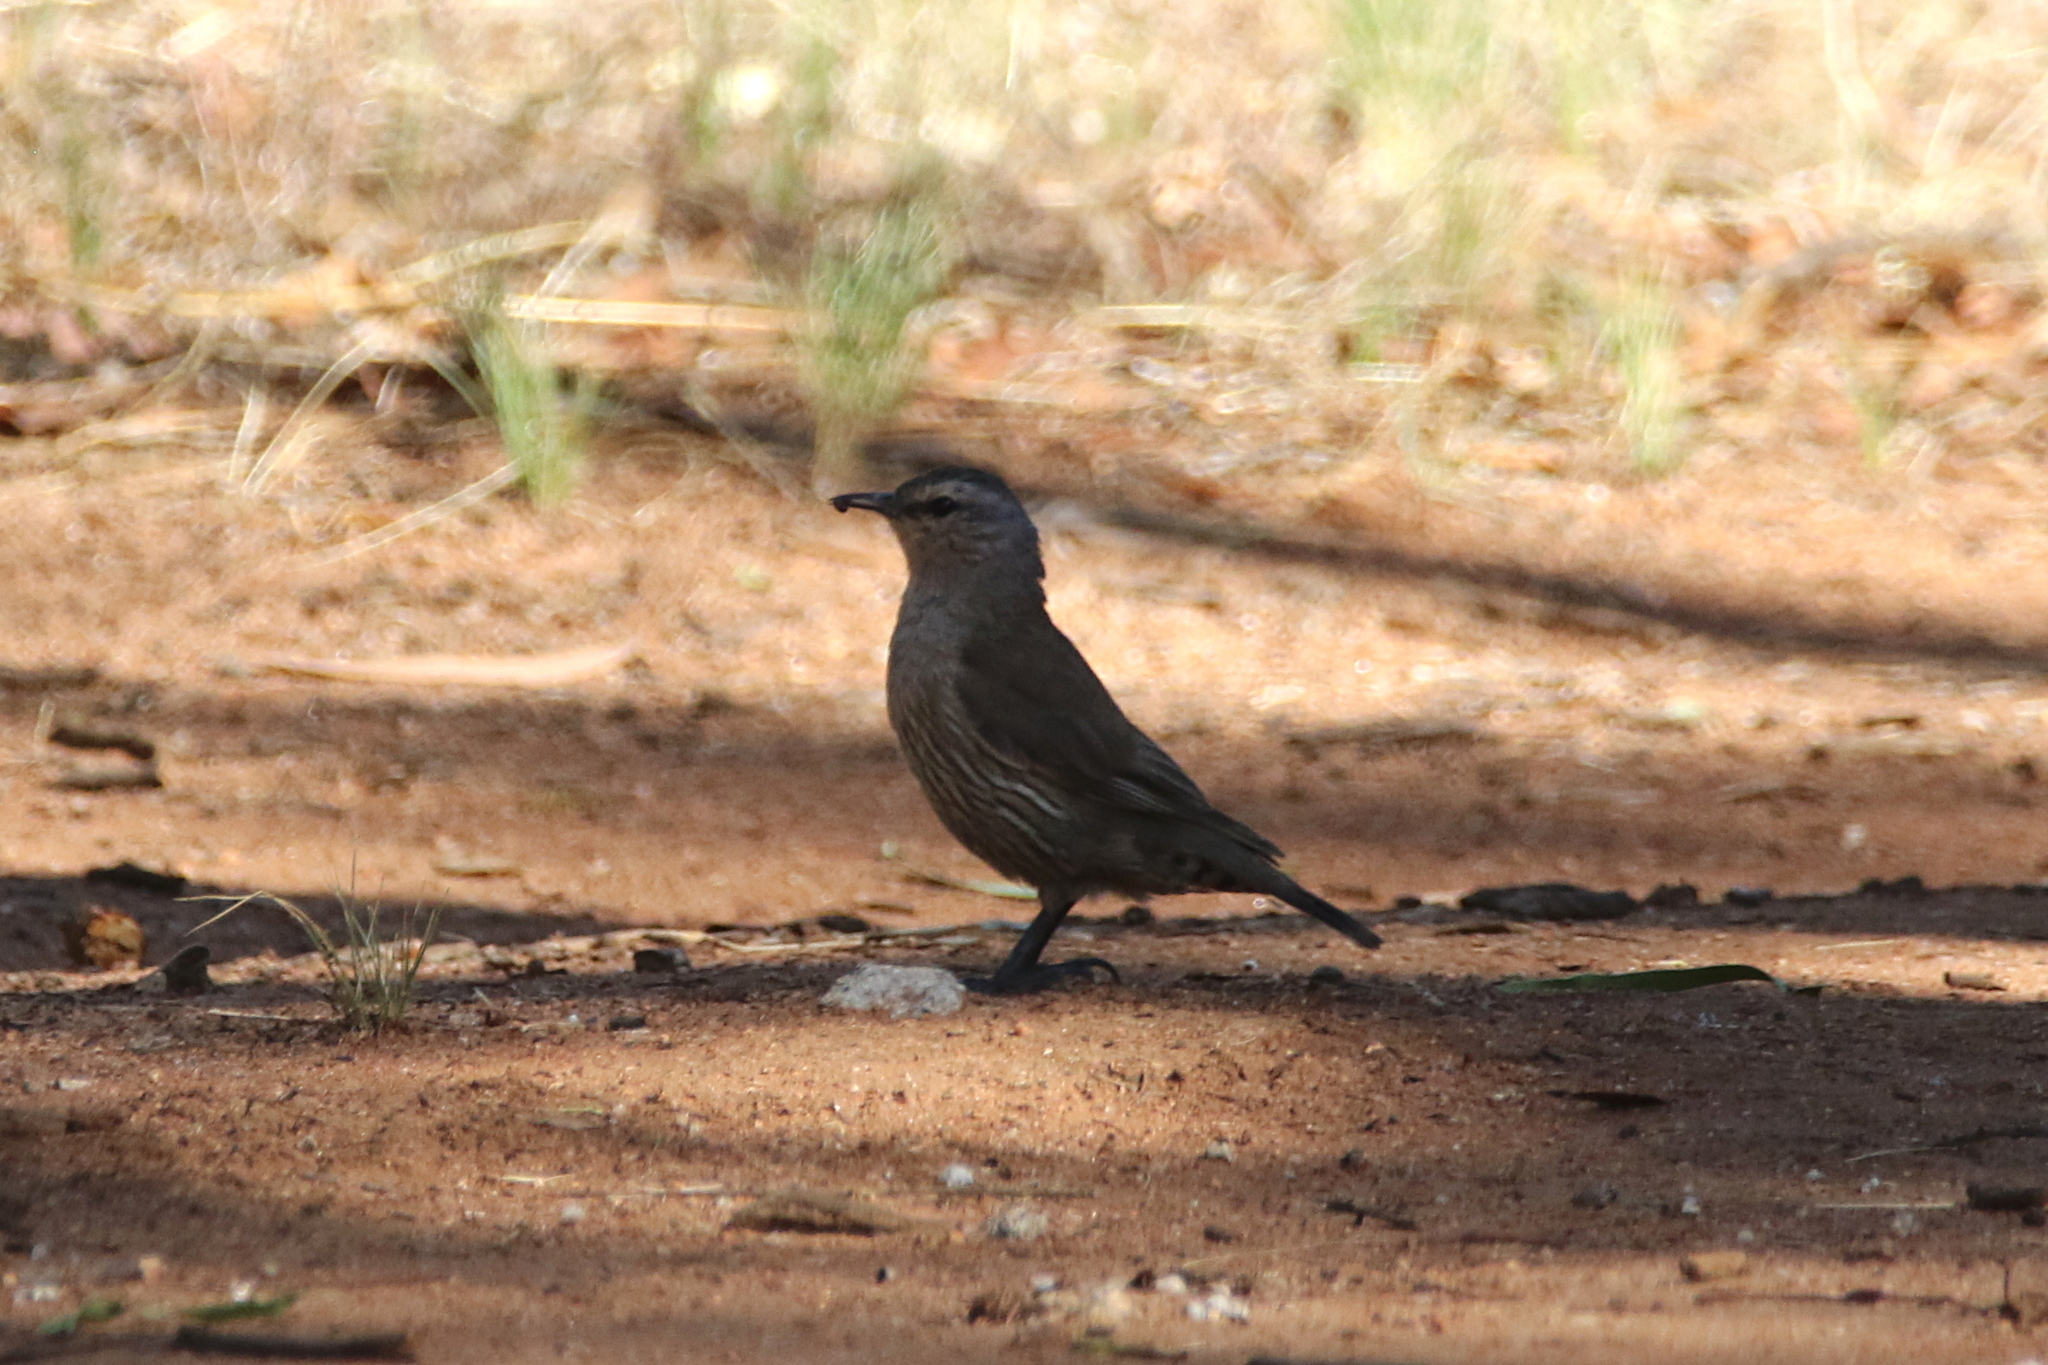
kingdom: Animalia
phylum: Chordata
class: Aves
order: Passeriformes
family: Climacteridae
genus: Climacteris
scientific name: Climacteris picumnus
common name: Brown treecreeper
